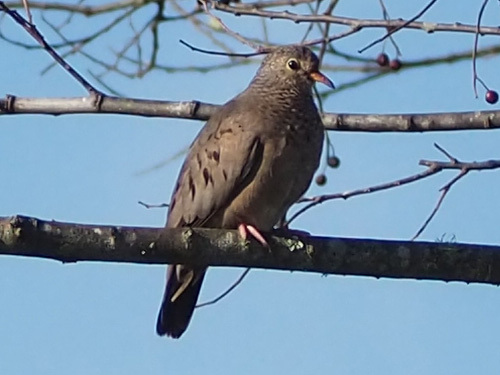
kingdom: Animalia
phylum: Chordata
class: Aves
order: Columbiformes
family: Columbidae
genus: Columbina
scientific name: Columbina passerina
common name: Common ground-dove
